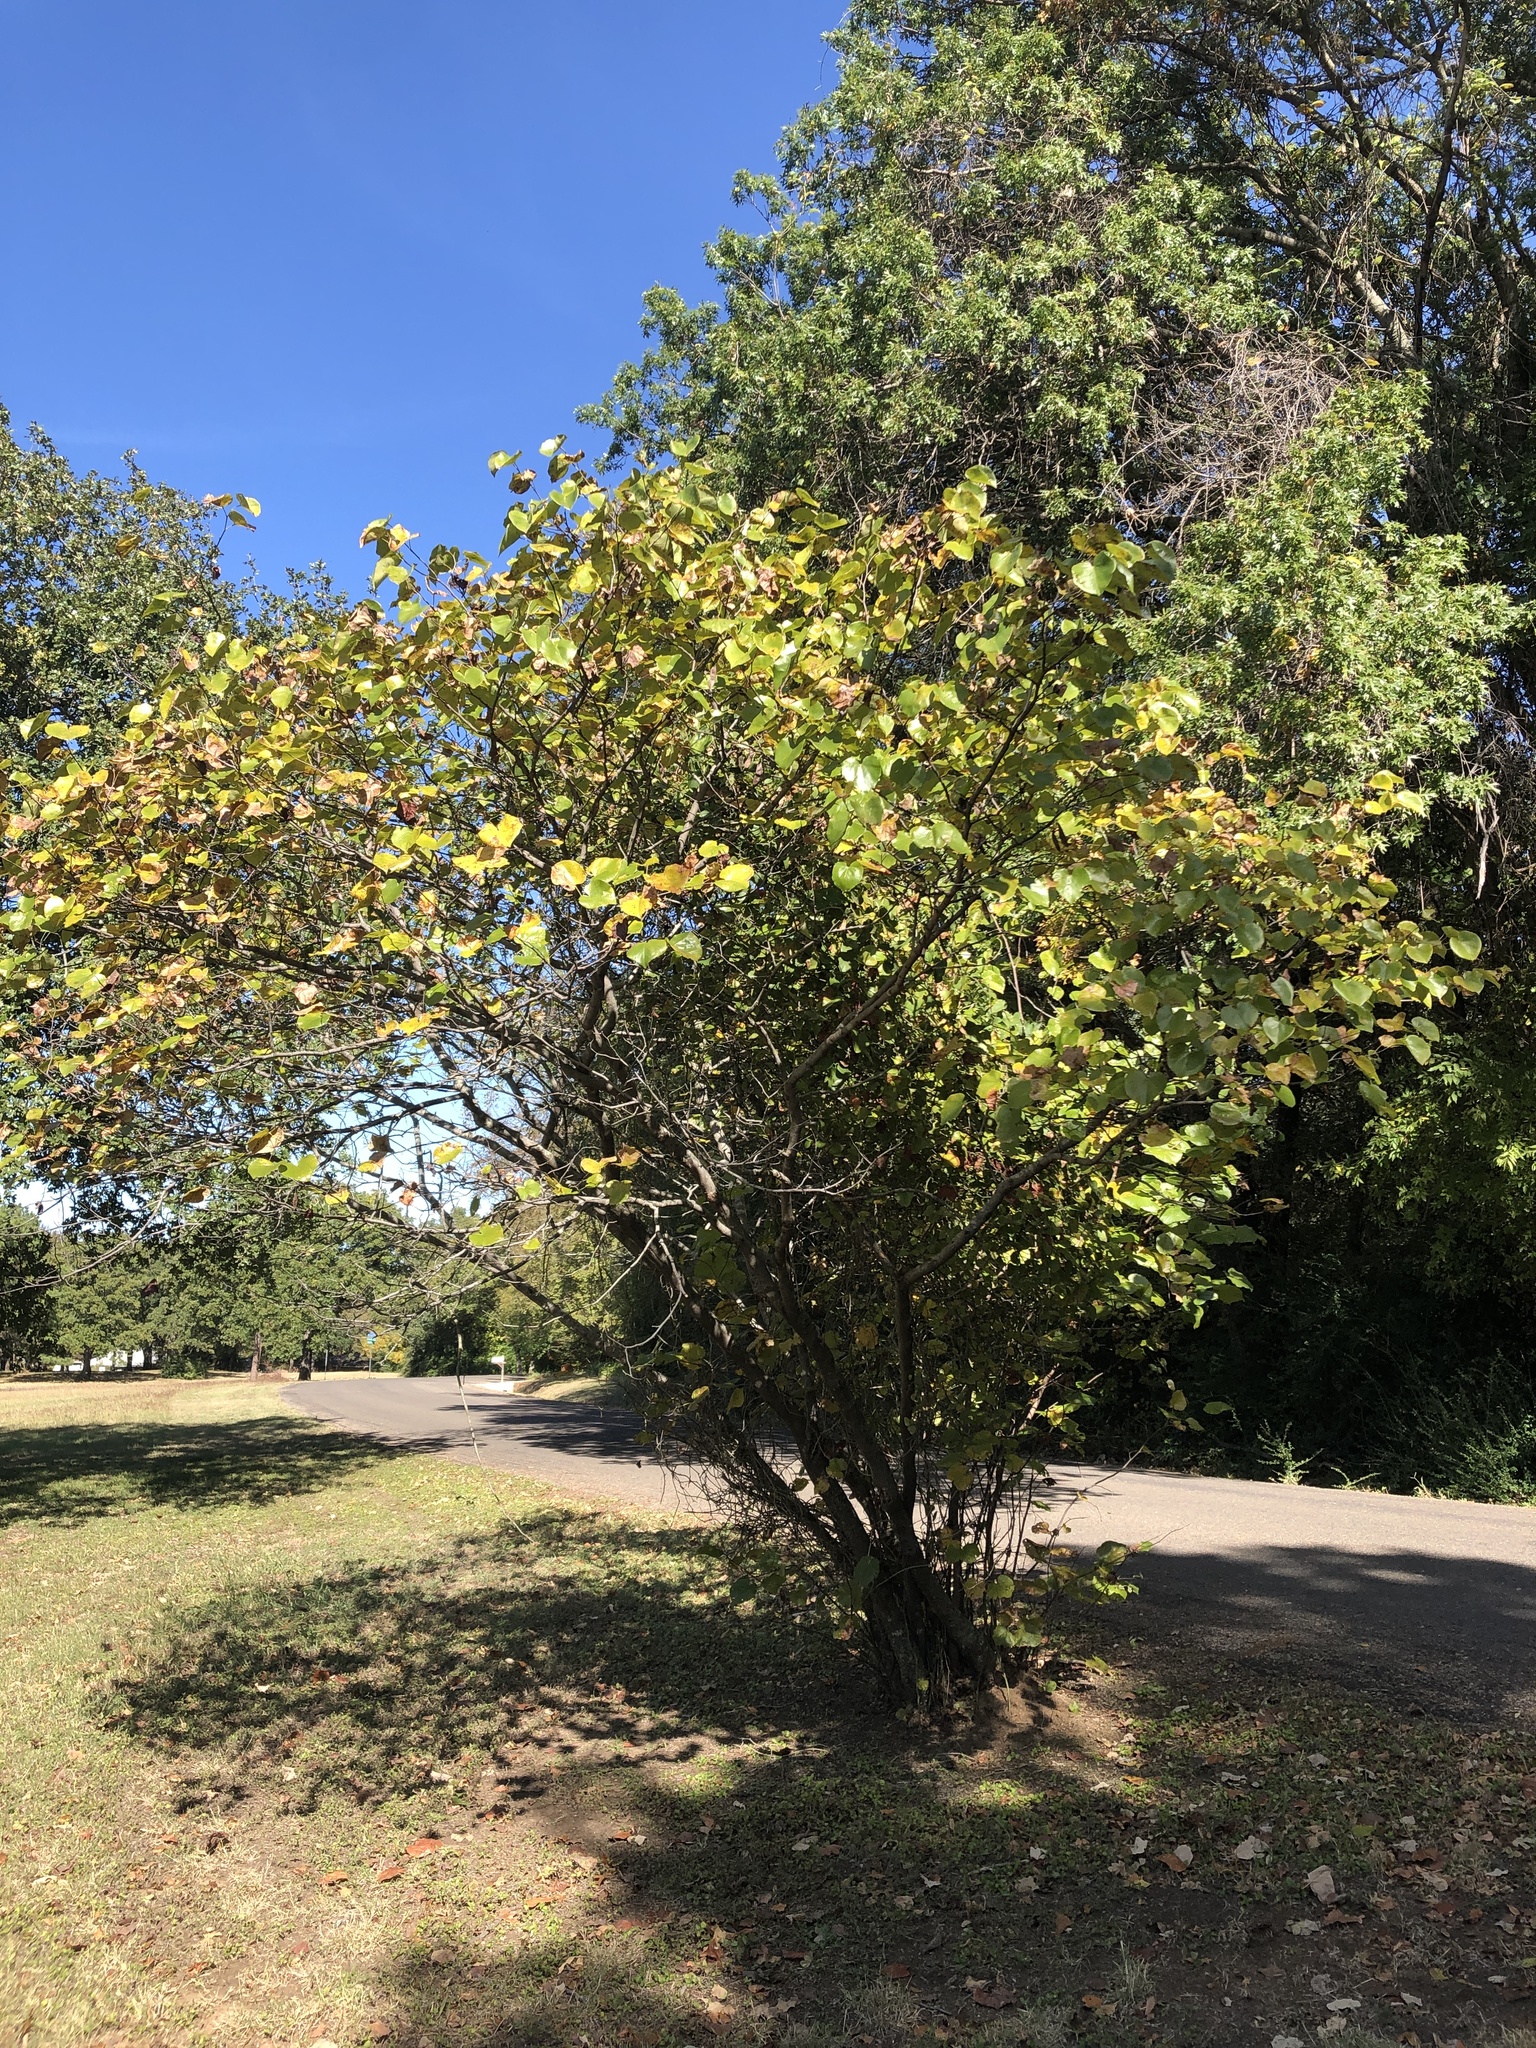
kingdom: Plantae
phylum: Tracheophyta
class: Magnoliopsida
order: Fabales
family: Fabaceae
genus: Cercis
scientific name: Cercis canadensis
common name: Eastern redbud
